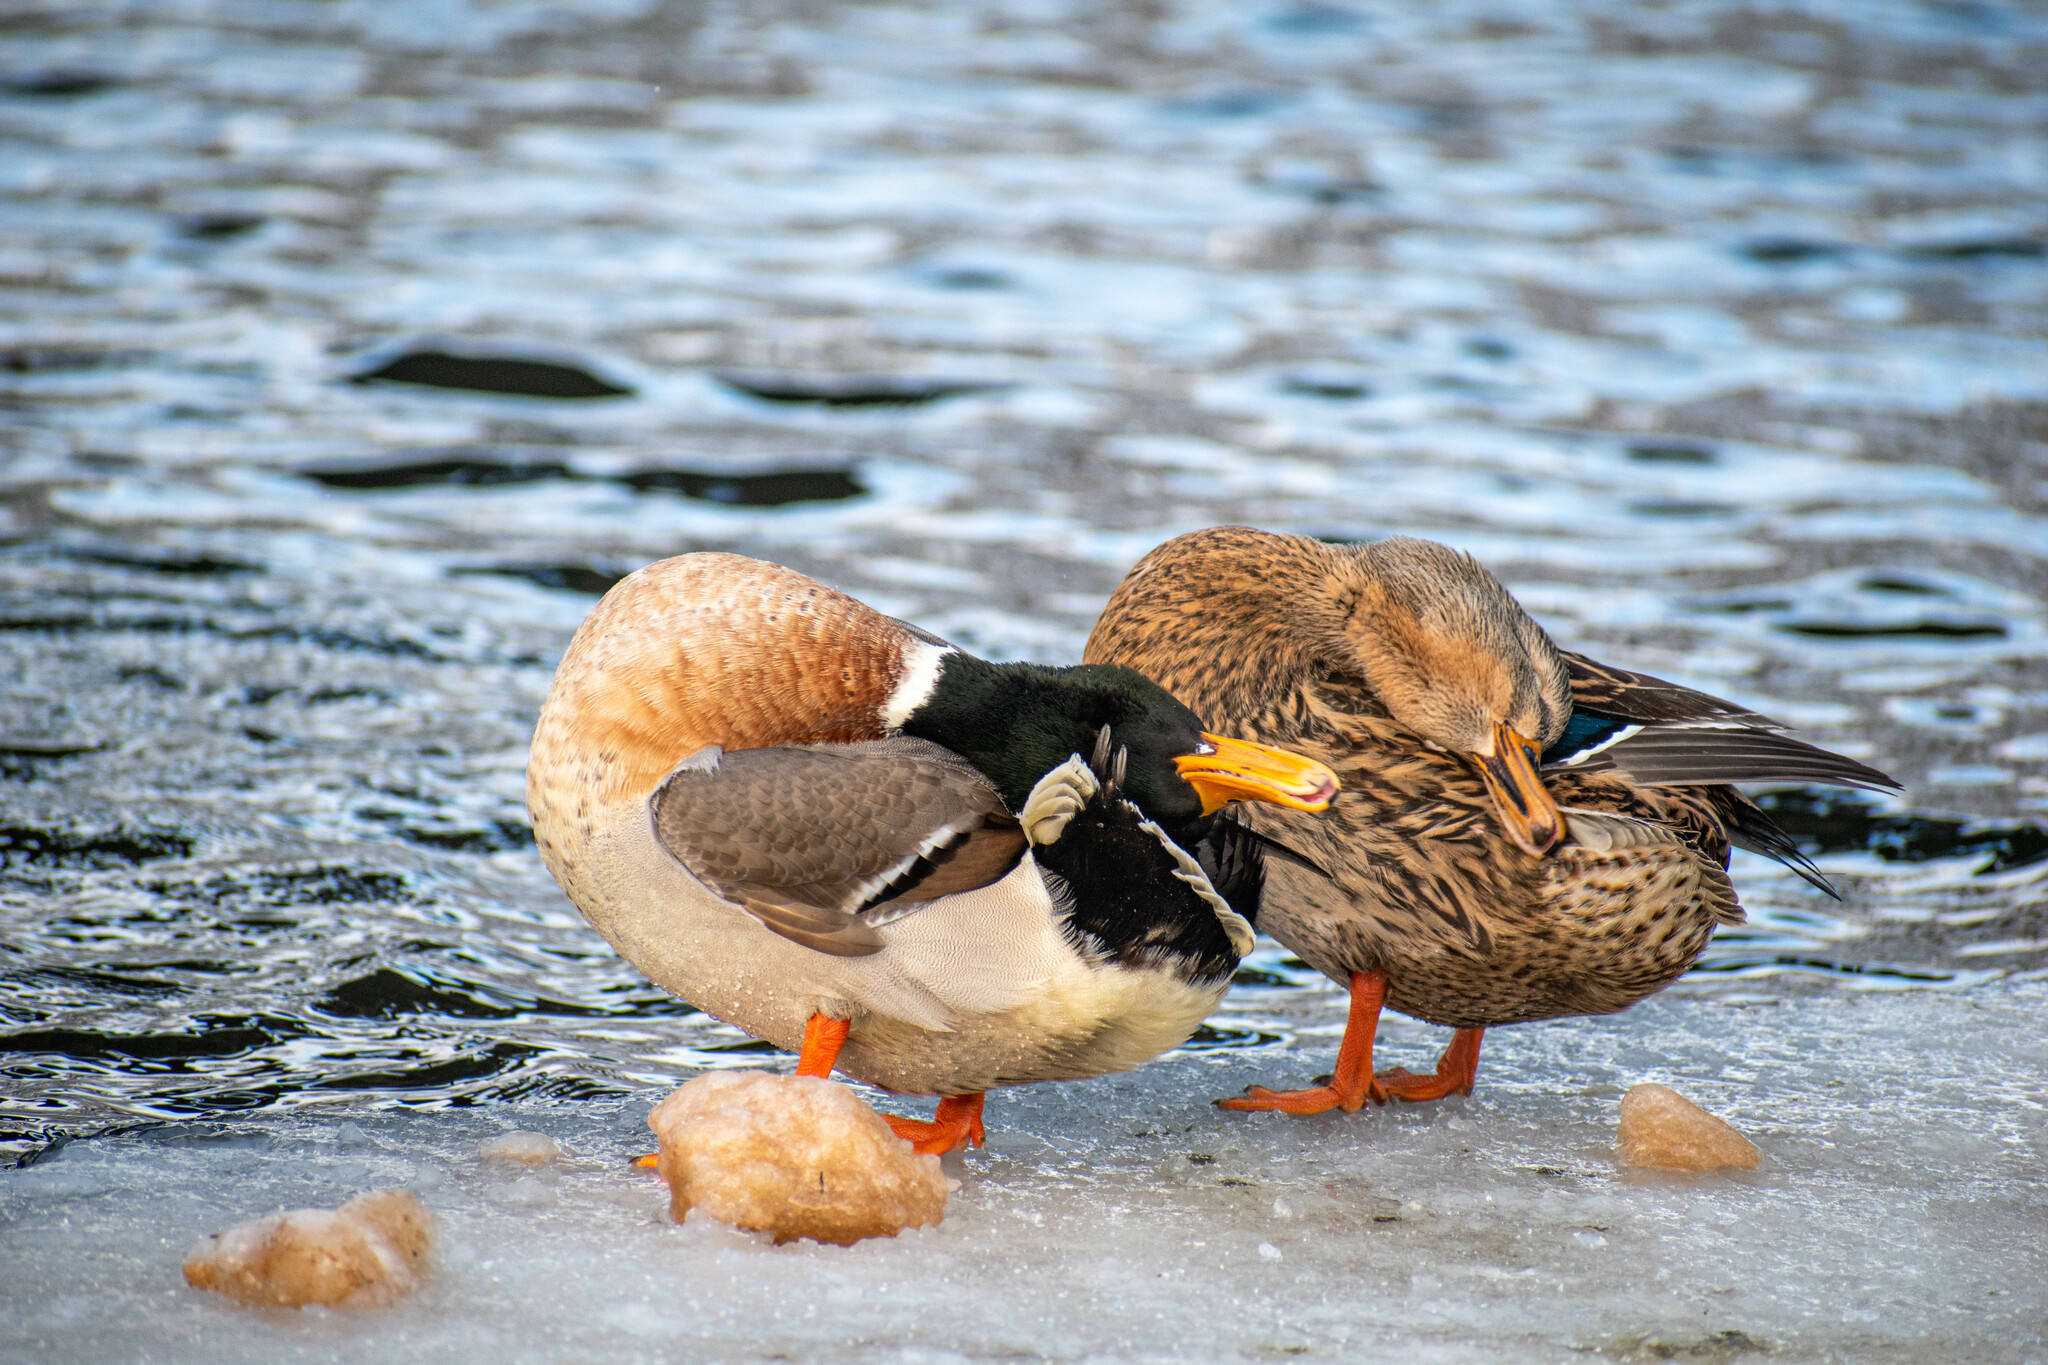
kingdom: Animalia
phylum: Chordata
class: Aves
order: Anseriformes
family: Anatidae
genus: Anas
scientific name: Anas platyrhynchos
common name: Mallard
